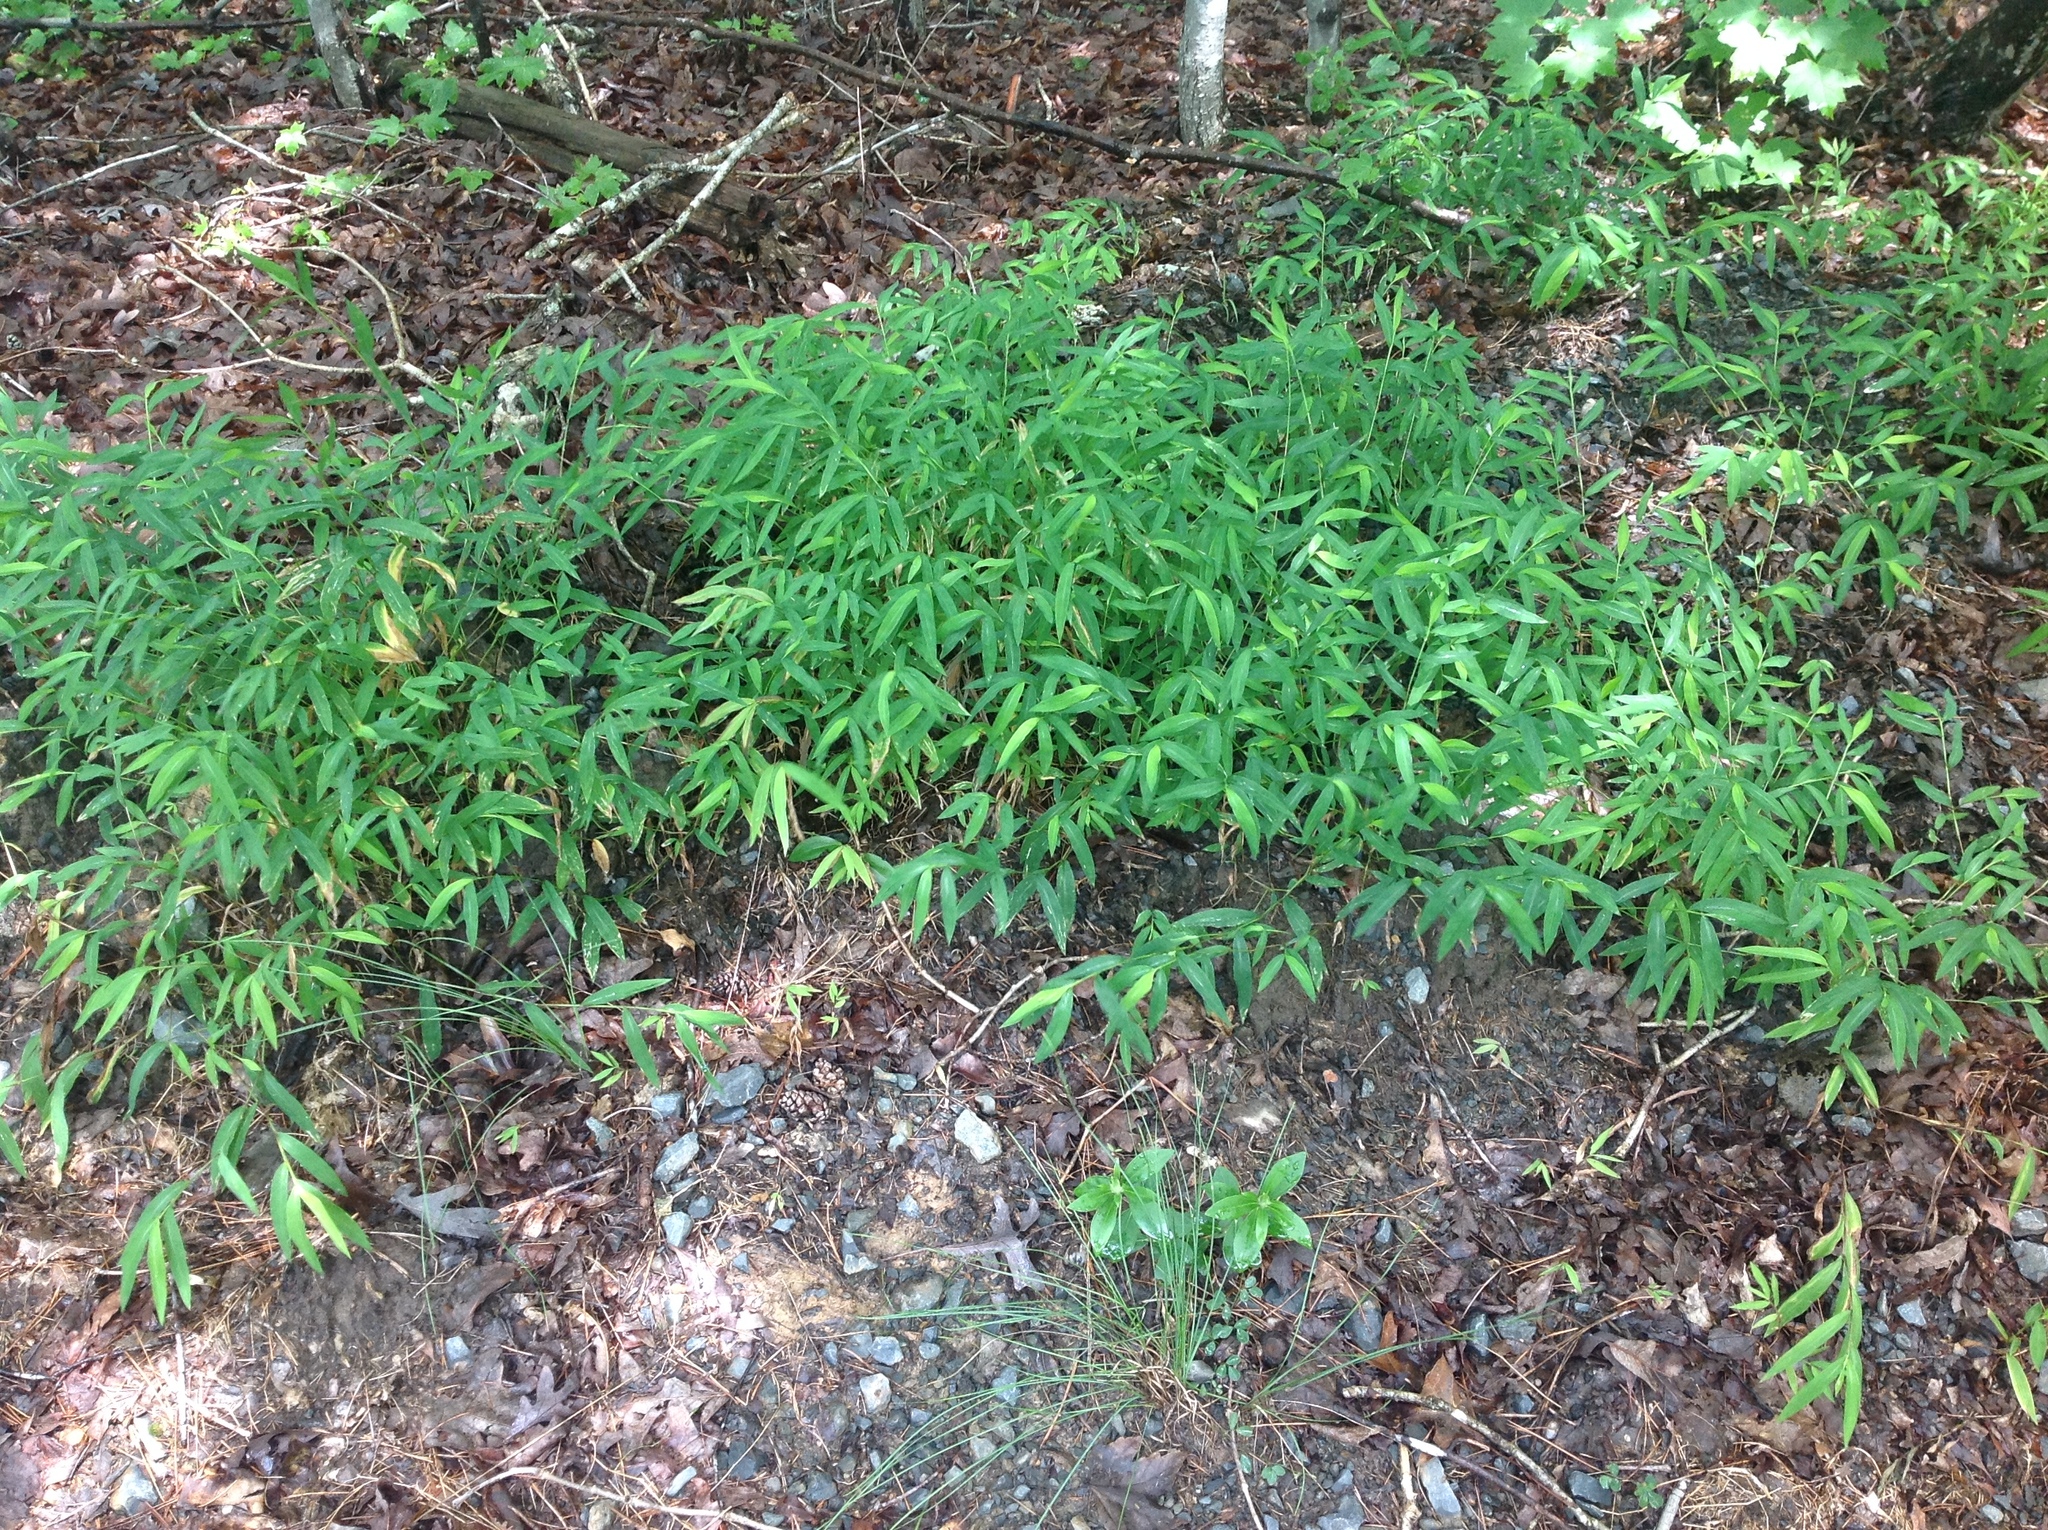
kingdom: Plantae
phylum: Tracheophyta
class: Liliopsida
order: Poales
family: Poaceae
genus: Microstegium
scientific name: Microstegium vimineum
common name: Japanese stiltgrass
